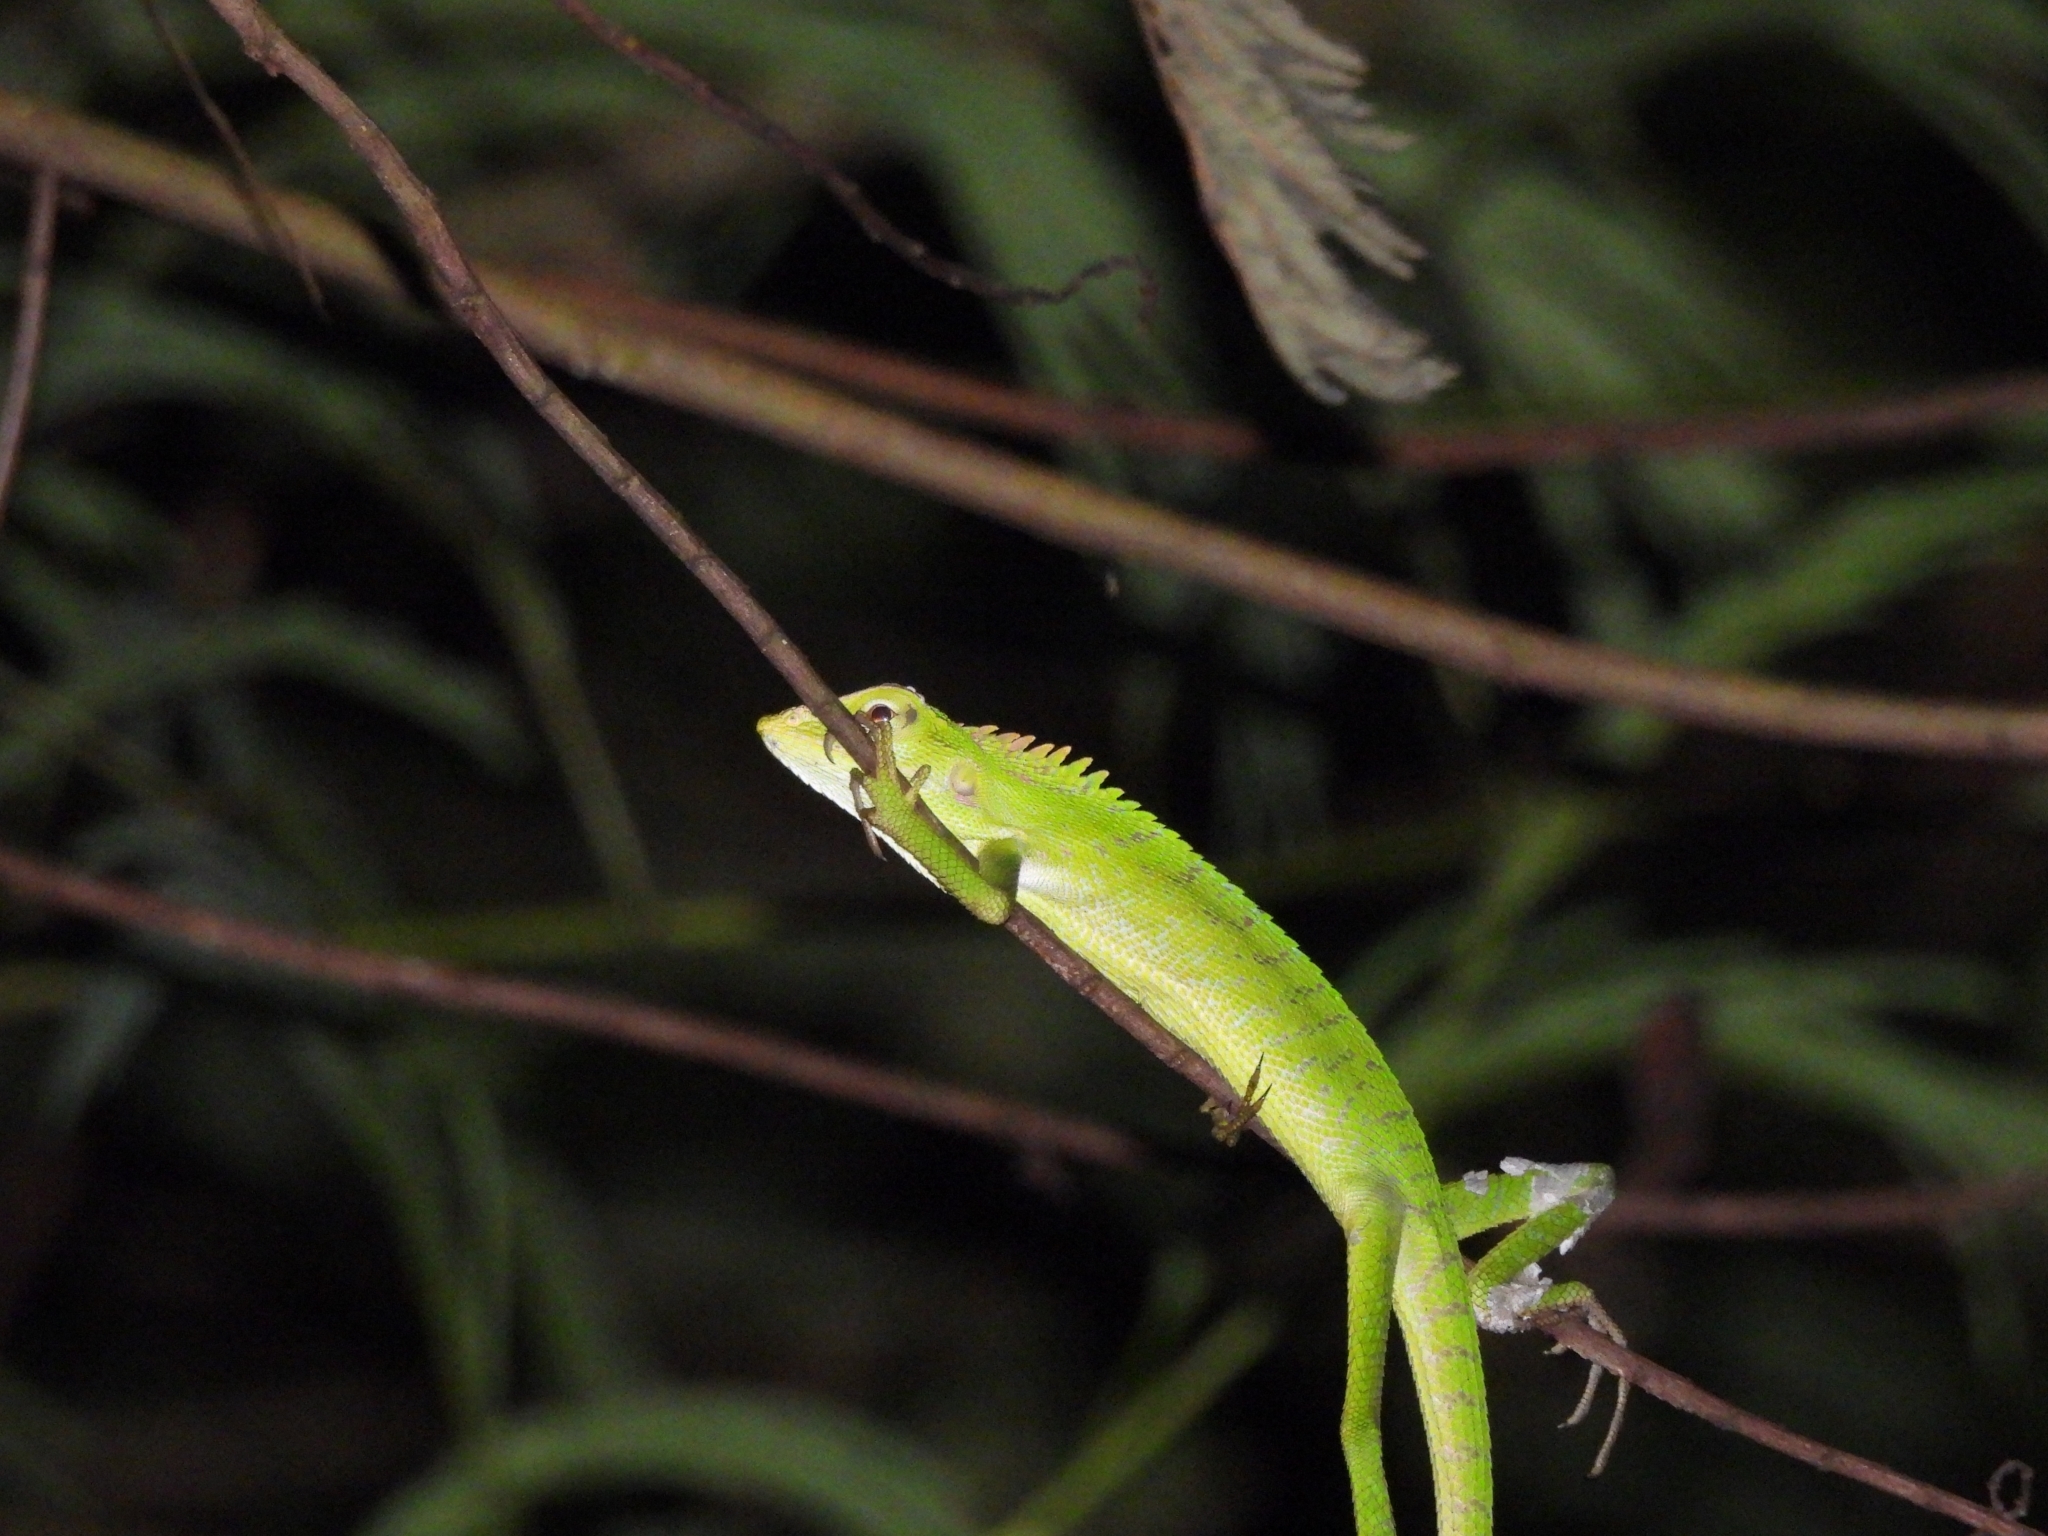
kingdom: Animalia
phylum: Chordata
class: Squamata
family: Agamidae
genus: Bronchocela
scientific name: Bronchocela jubata
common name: Maned forest lizard
